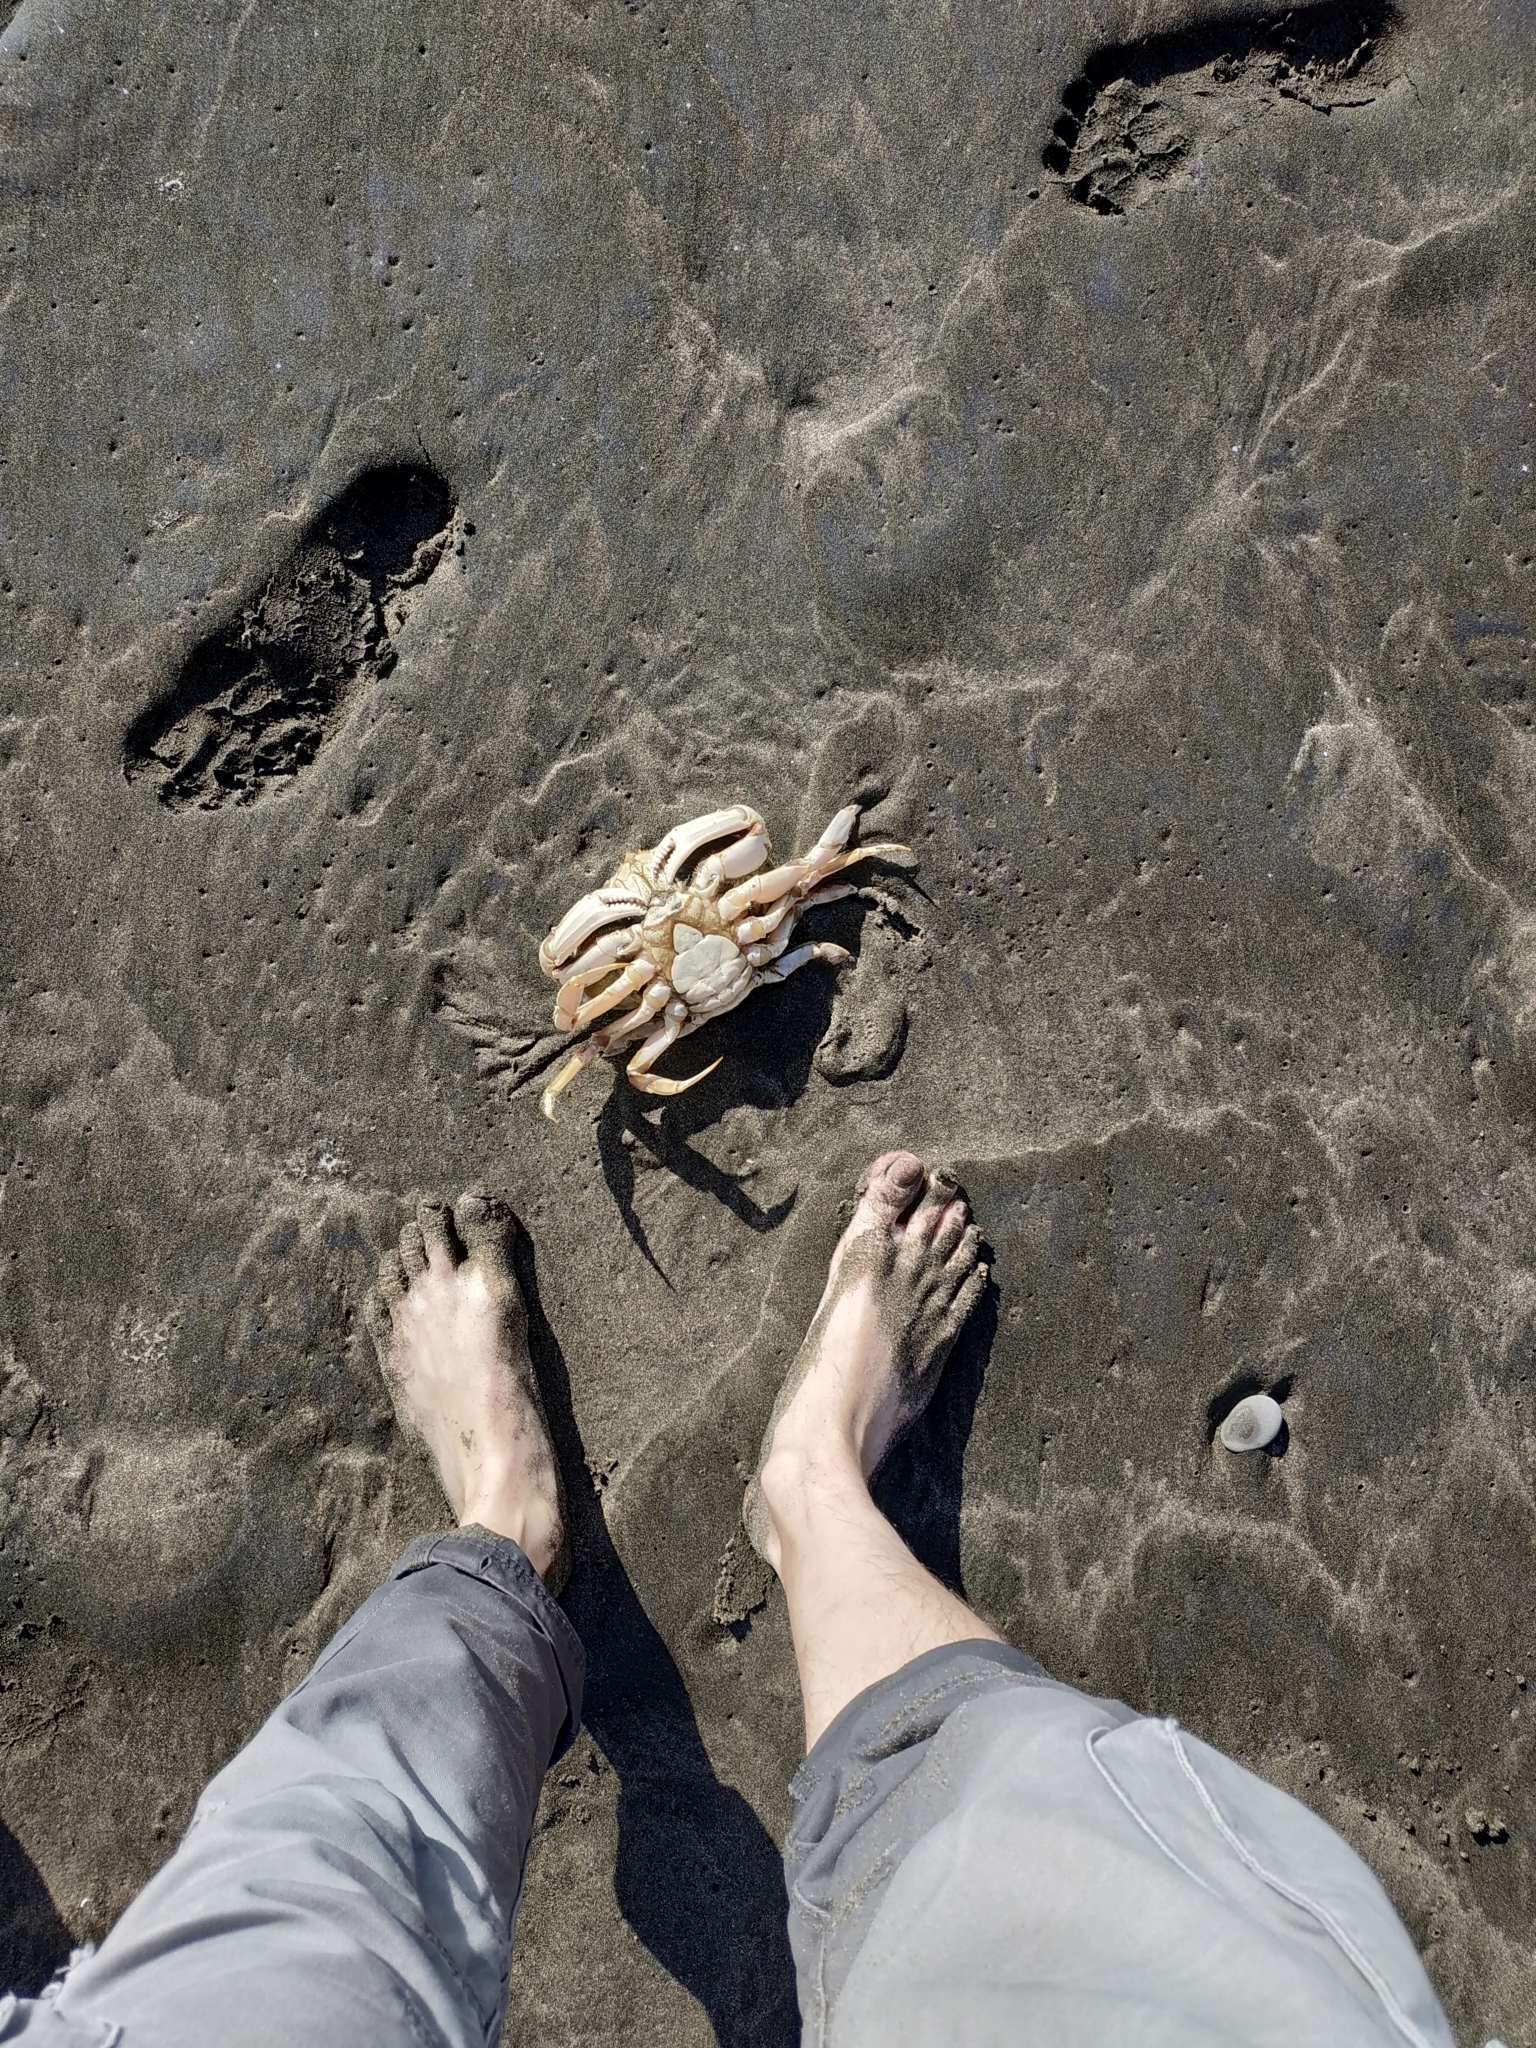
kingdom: Animalia
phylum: Arthropoda
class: Malacostraca
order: Decapoda
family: Cancridae
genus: Metacarcinus
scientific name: Metacarcinus magister
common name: Californian crab
